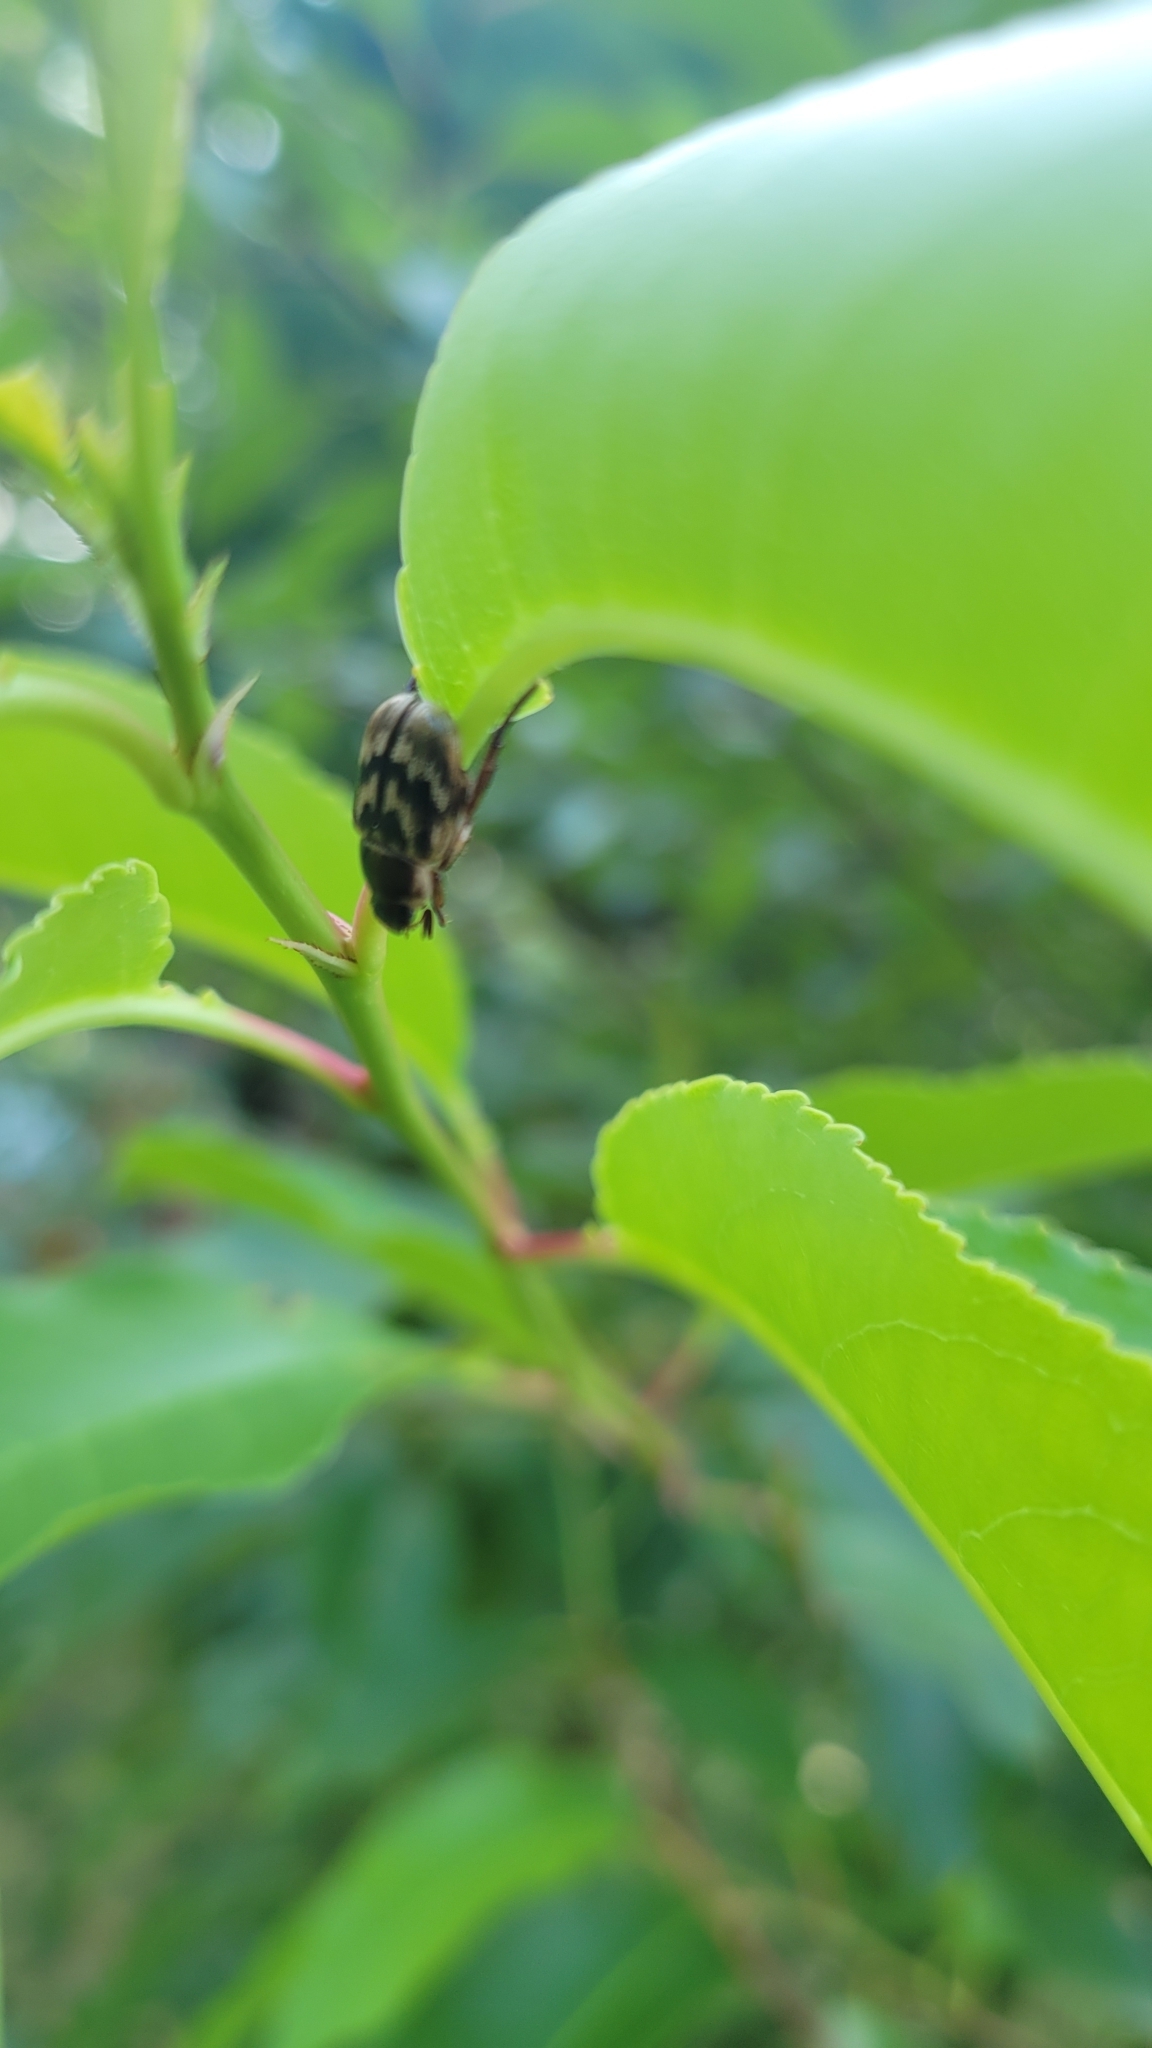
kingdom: Animalia
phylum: Arthropoda
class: Insecta
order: Coleoptera
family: Scarabaeidae
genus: Exomala
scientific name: Exomala orientalis
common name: Oriental beetle
